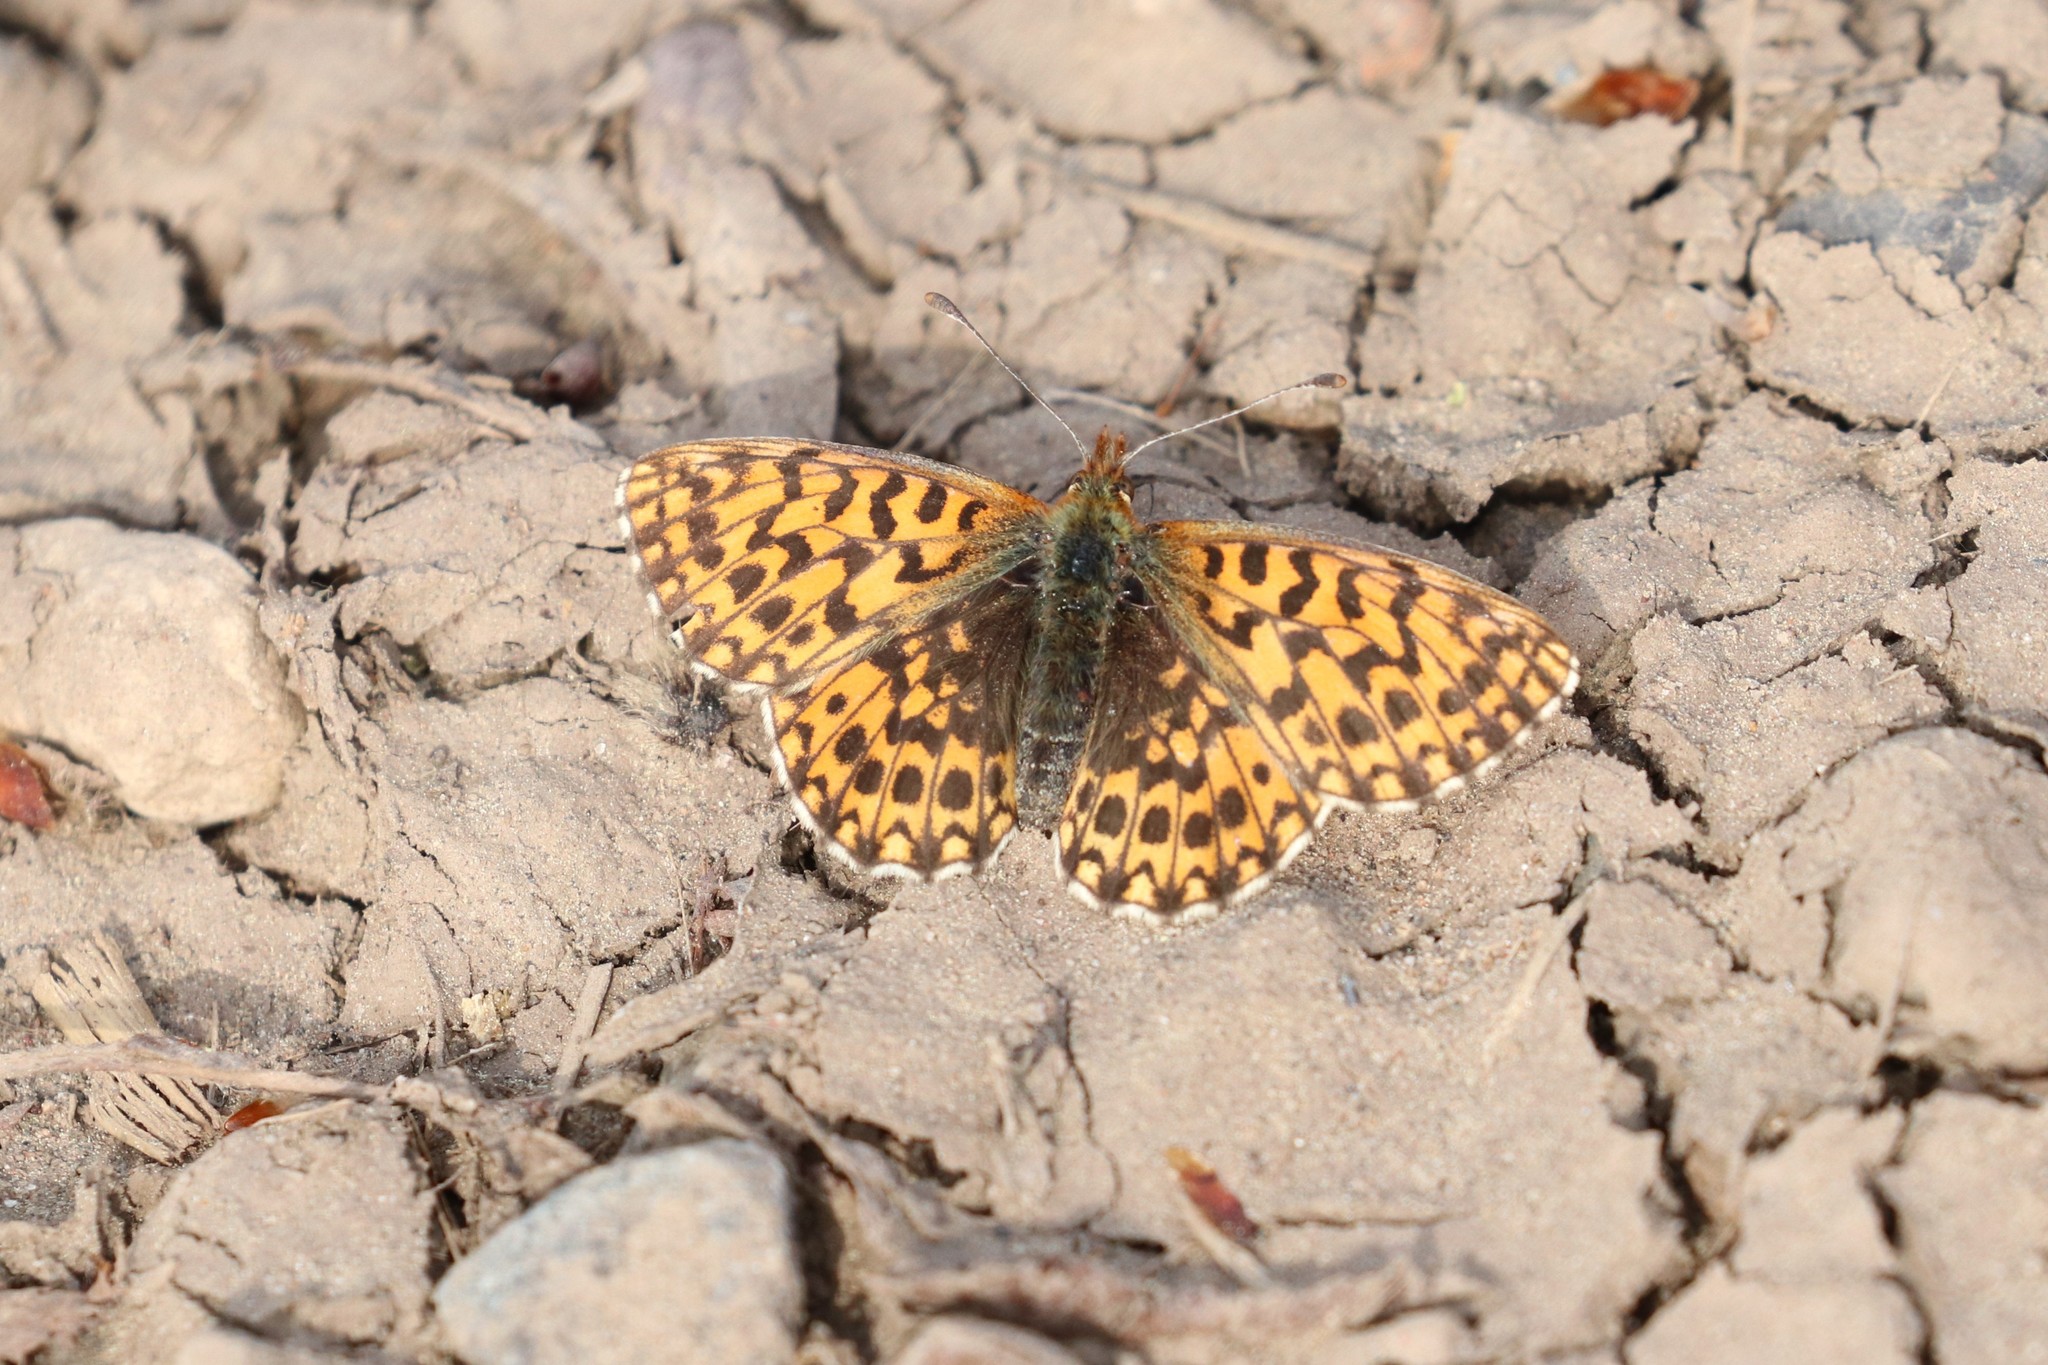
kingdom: Animalia
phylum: Arthropoda
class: Insecta
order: Lepidoptera
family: Nymphalidae
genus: Boloria
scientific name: Boloria dia
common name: Weaver's fritillary
